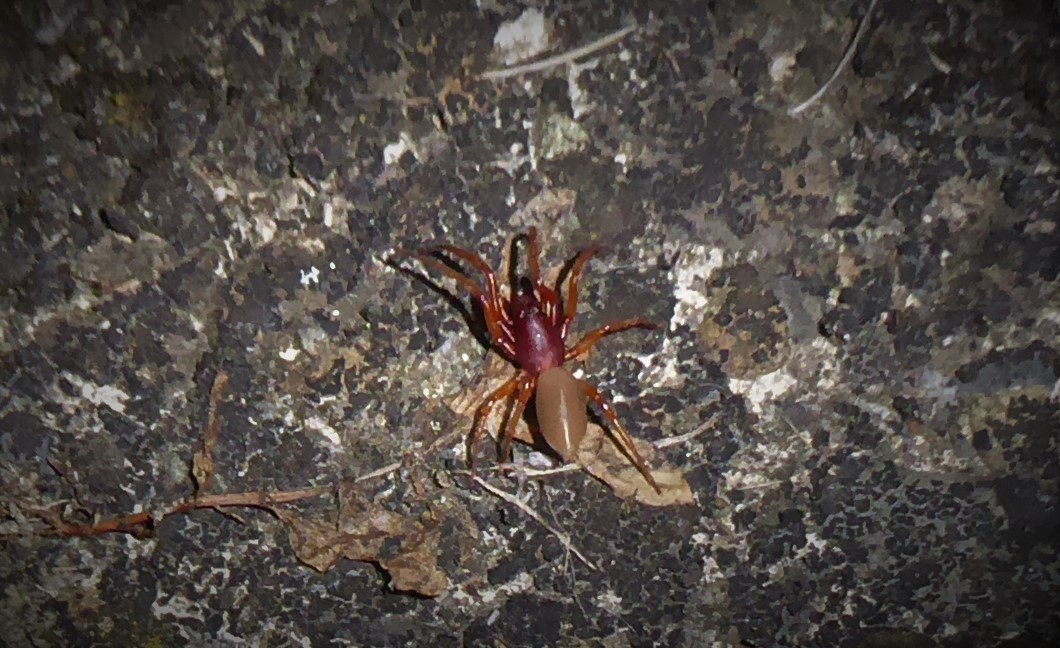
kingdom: Animalia
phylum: Arthropoda
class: Arachnida
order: Araneae
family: Dysderidae
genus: Dysdera
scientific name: Dysdera crocata
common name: Woodlouse spider
